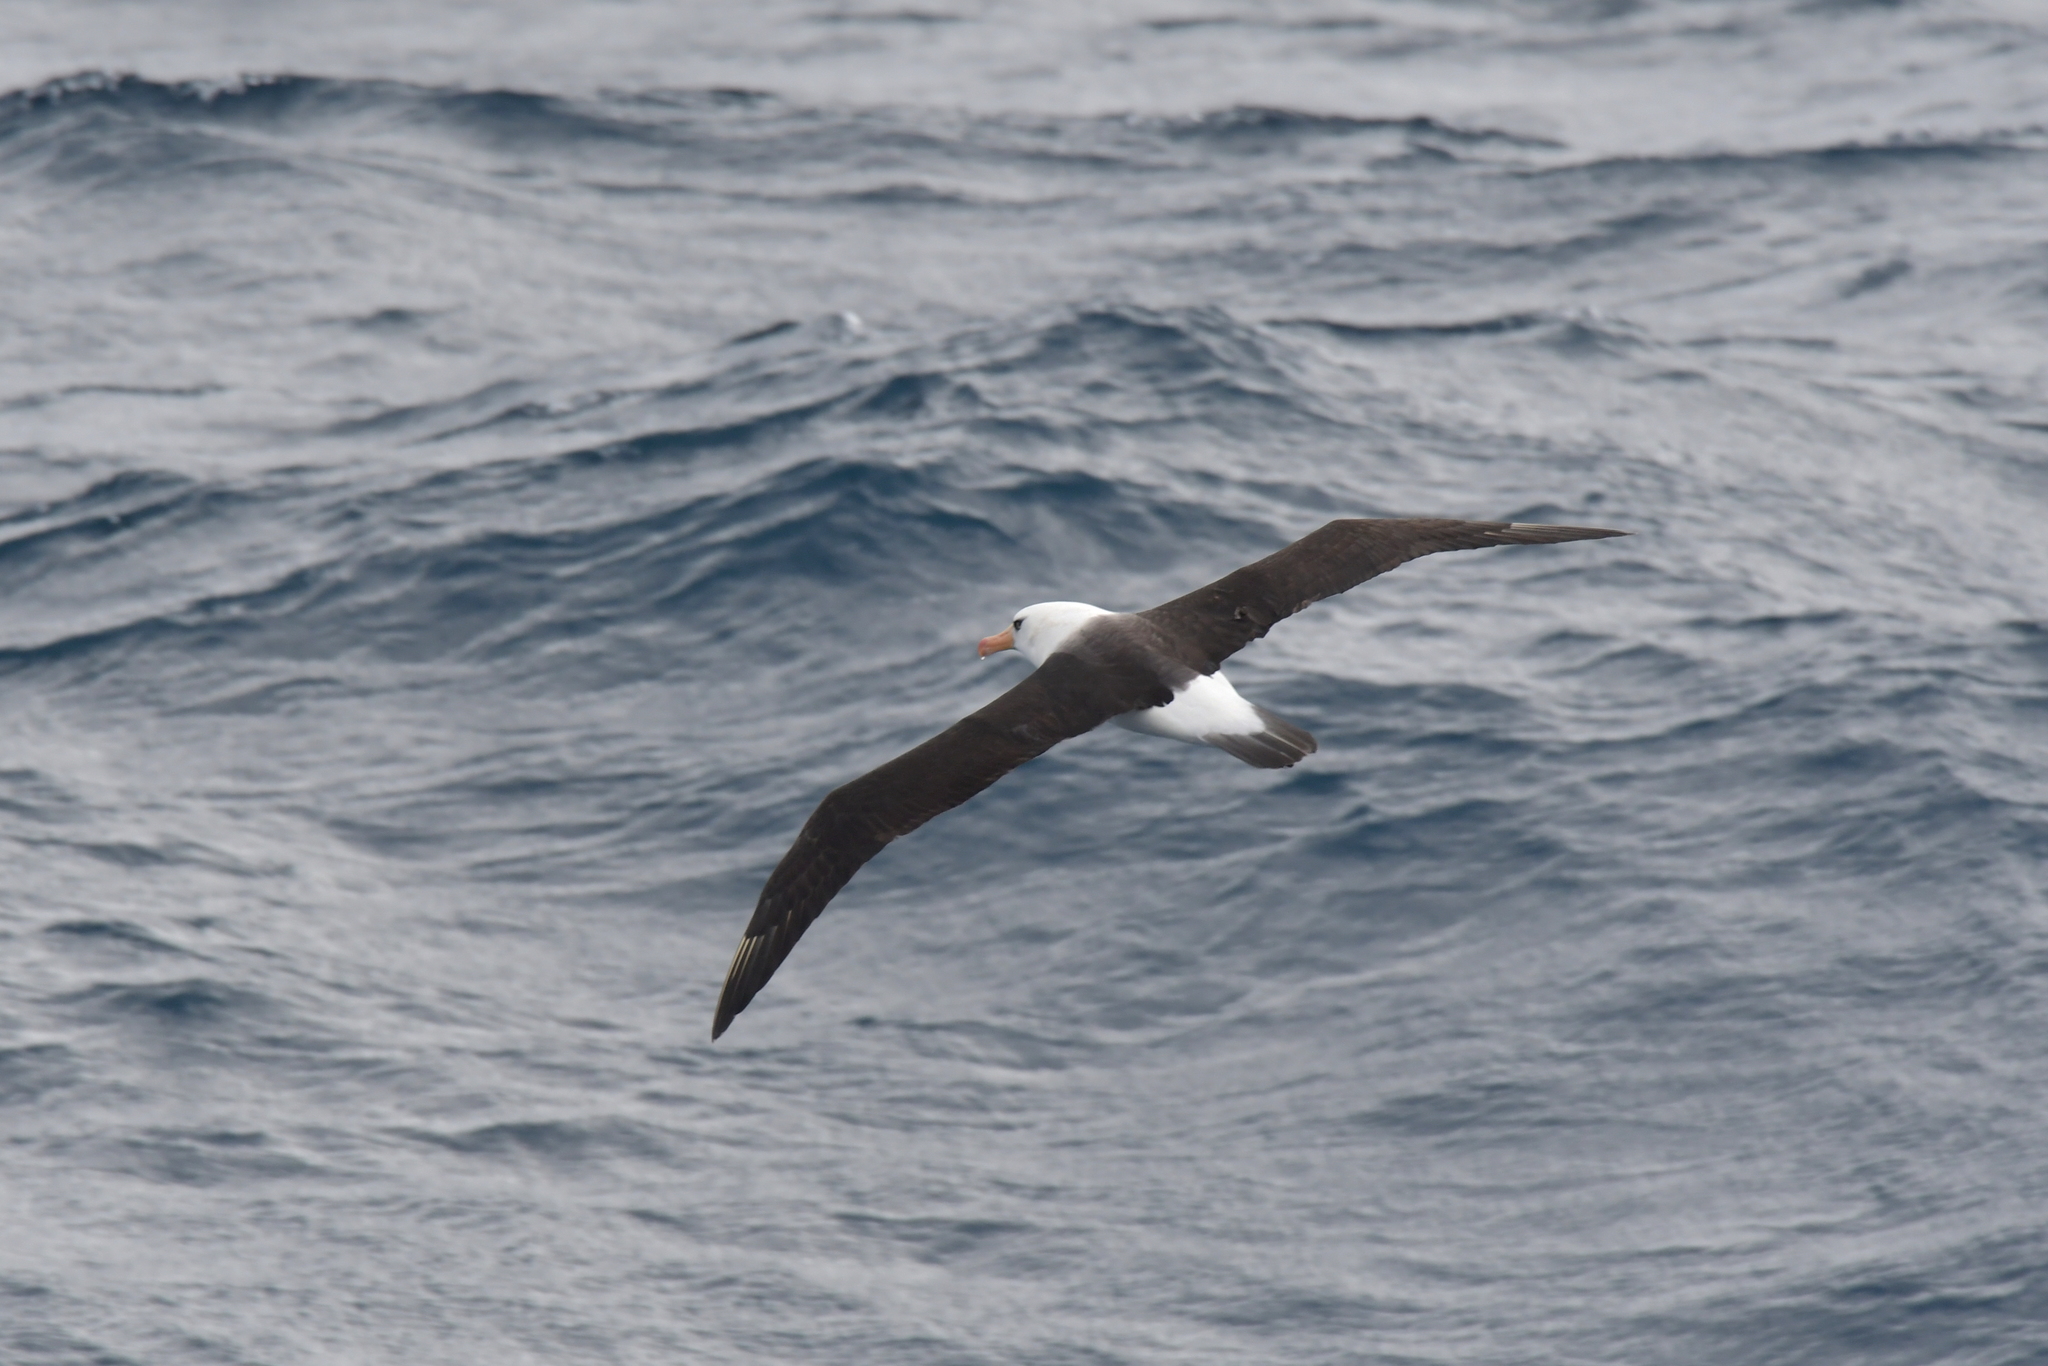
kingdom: Animalia
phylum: Chordata
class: Aves
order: Procellariiformes
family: Diomedeidae
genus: Thalassarche
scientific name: Thalassarche impavida
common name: Campbell albatross
